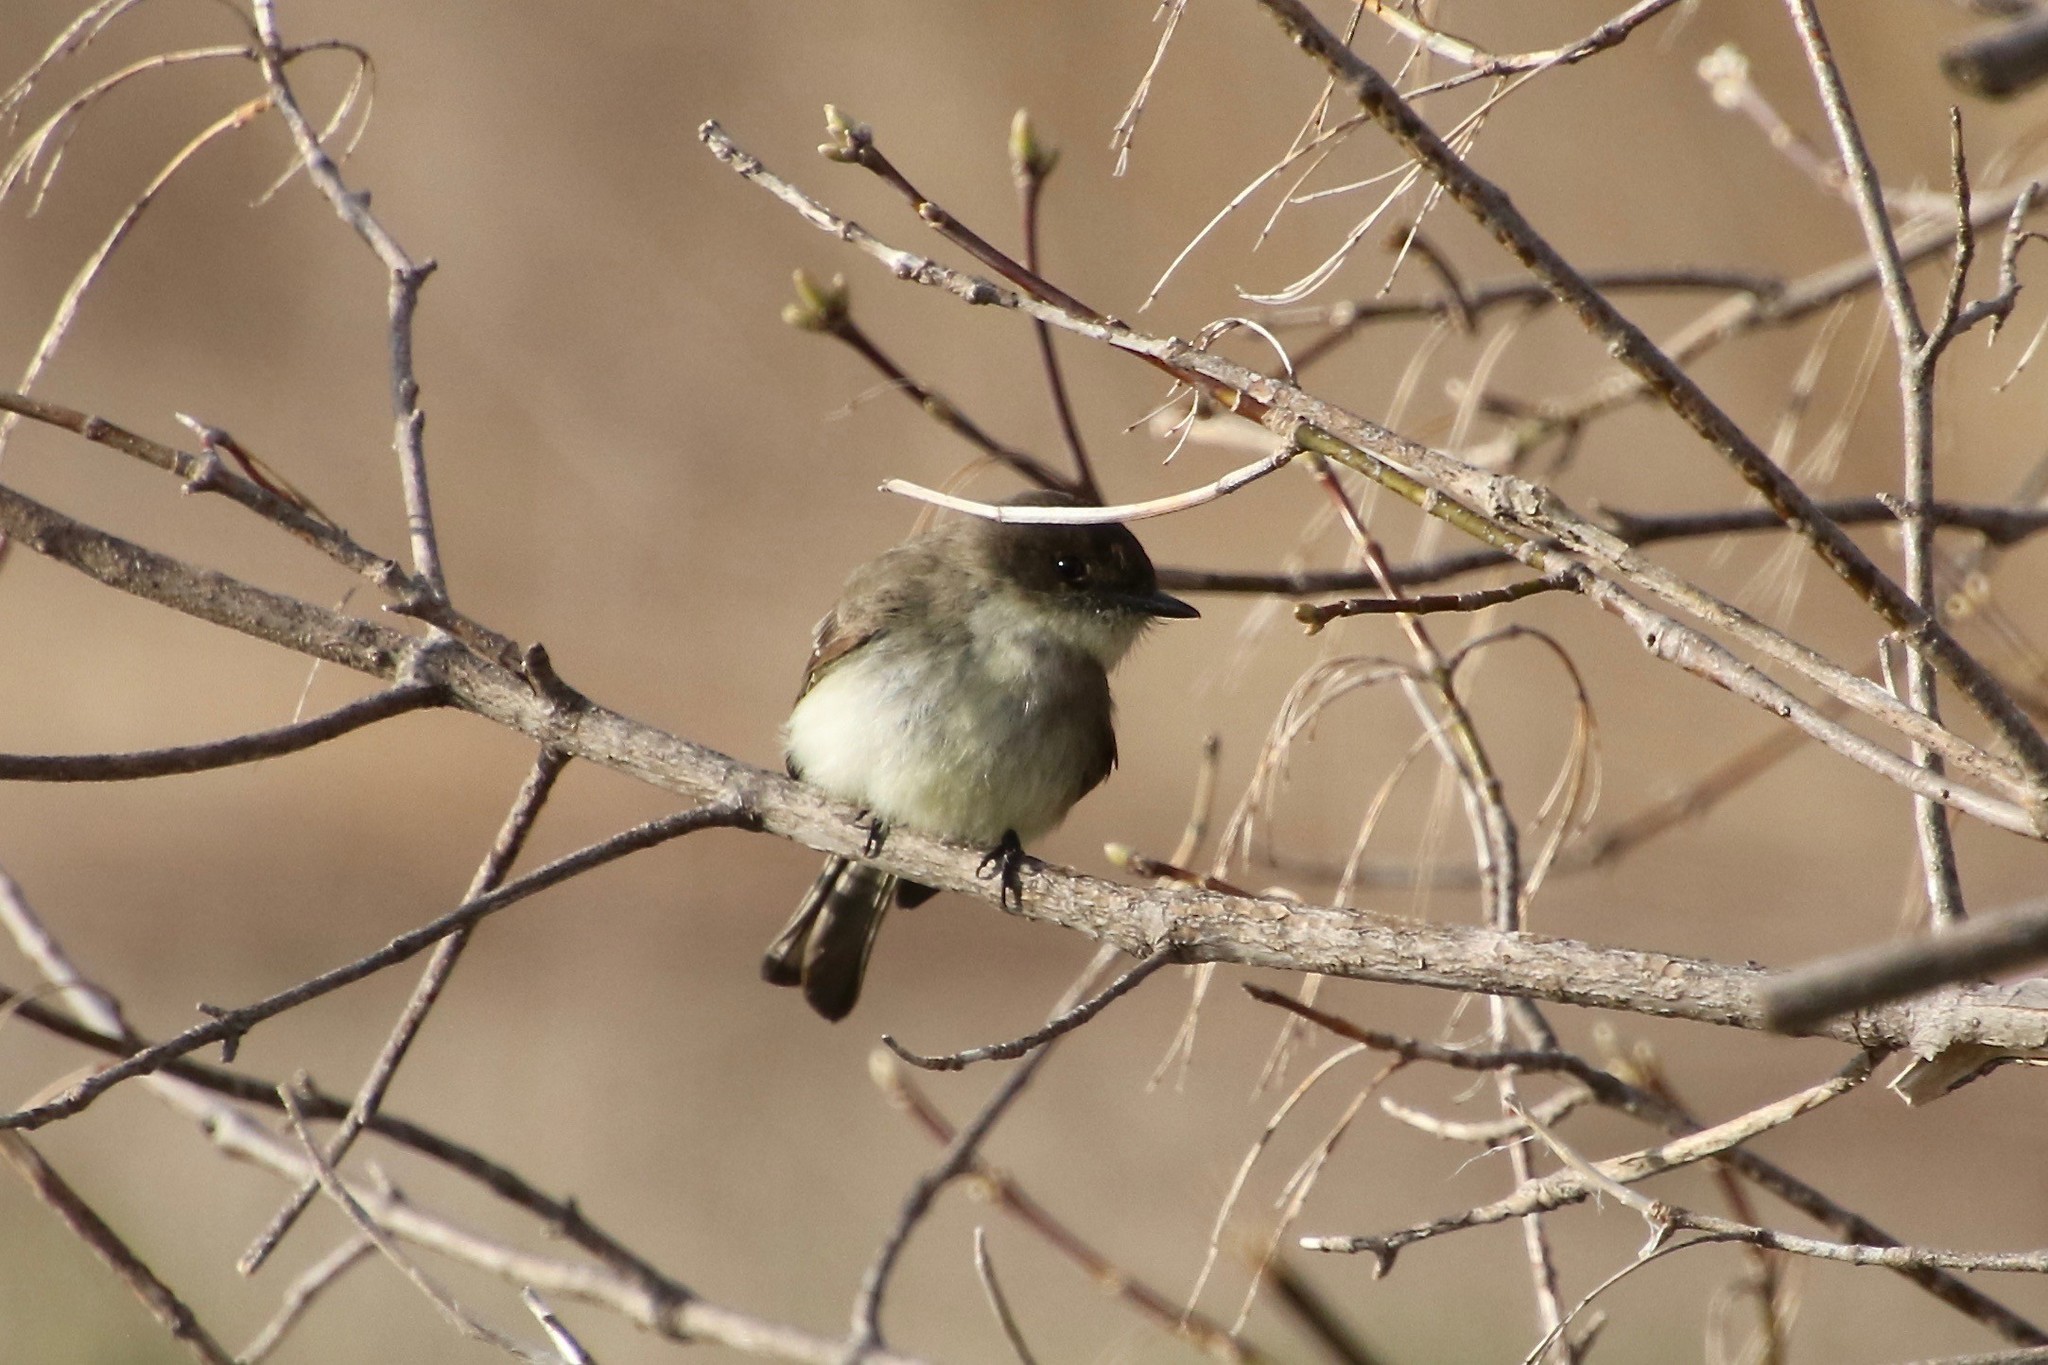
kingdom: Animalia
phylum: Chordata
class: Aves
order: Passeriformes
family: Tyrannidae
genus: Sayornis
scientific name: Sayornis phoebe
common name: Eastern phoebe
